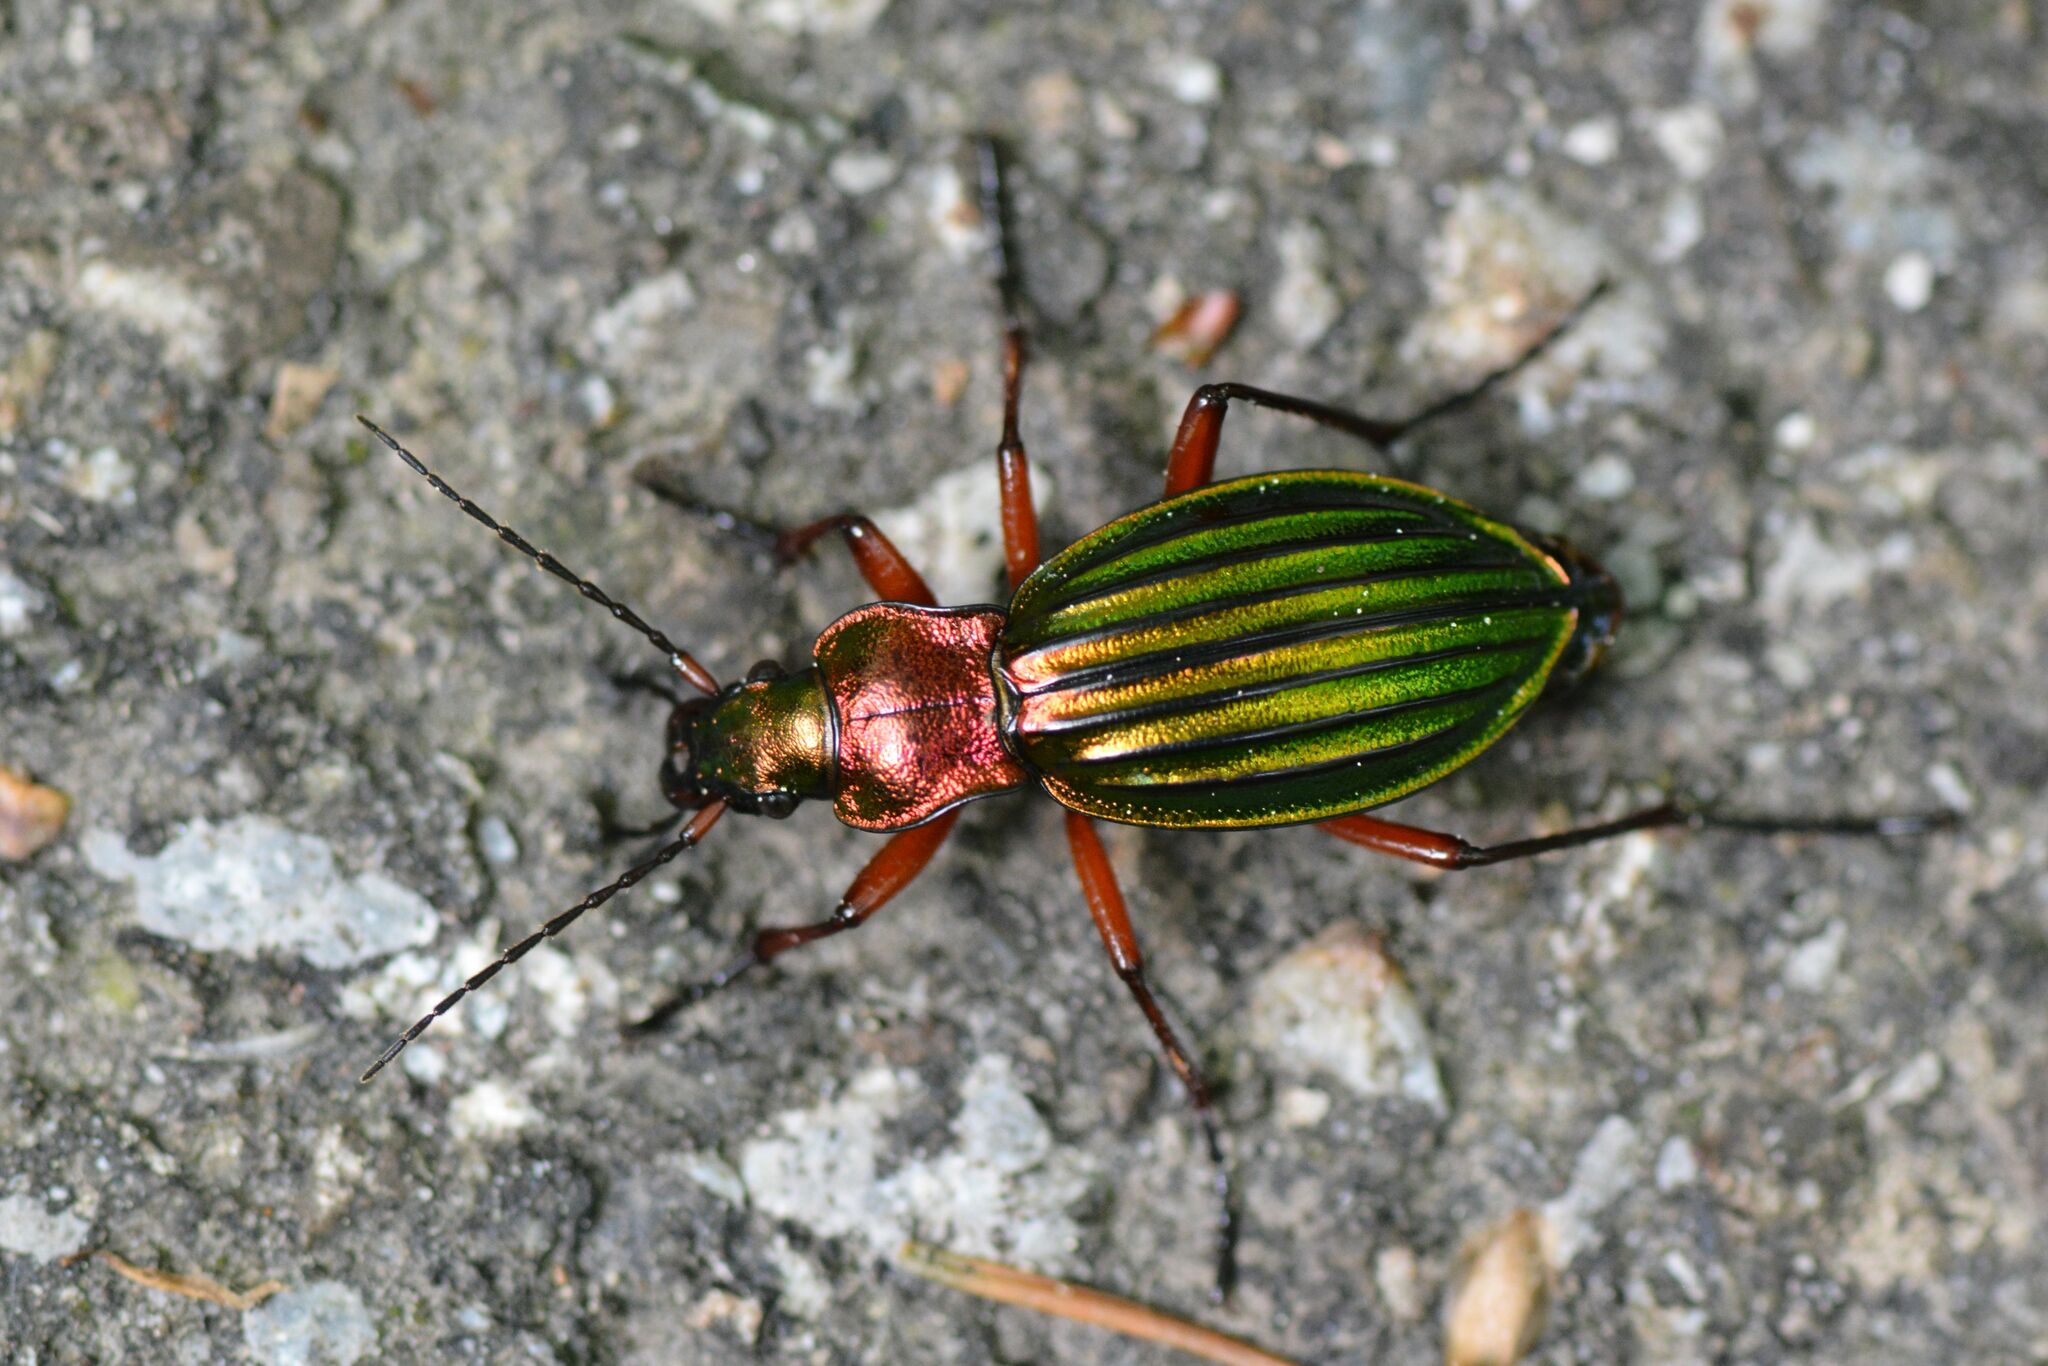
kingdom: Animalia
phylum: Arthropoda
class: Insecta
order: Coleoptera
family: Carabidae
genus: Carabus
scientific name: Carabus auronitens
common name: Carabus auronitens
